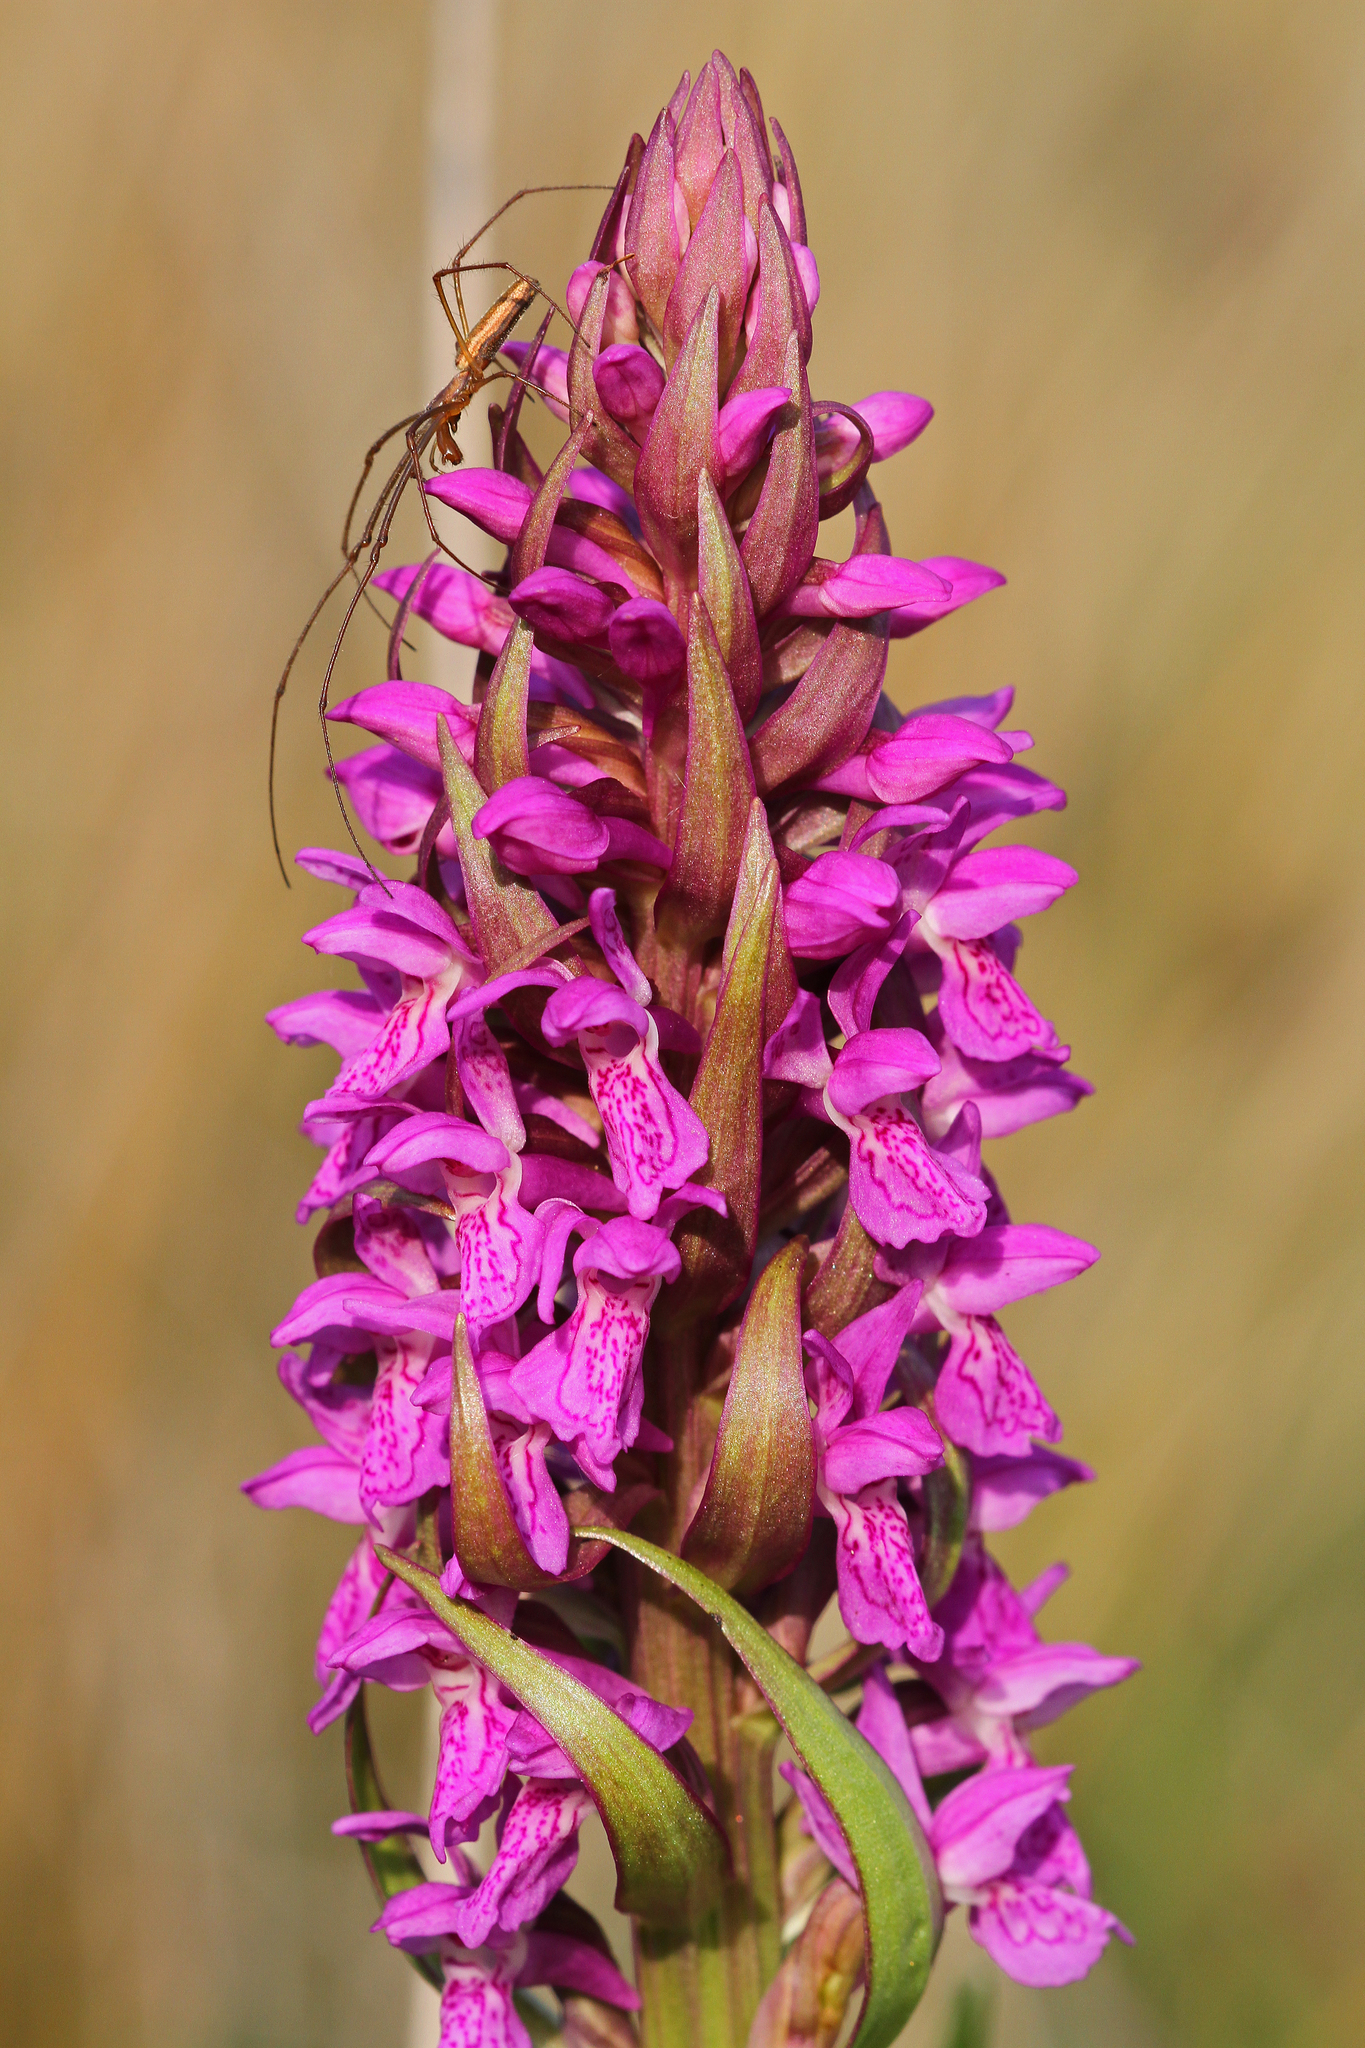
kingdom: Plantae
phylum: Tracheophyta
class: Liliopsida
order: Asparagales
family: Orchidaceae
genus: Dactylorhiza
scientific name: Dactylorhiza incarnata
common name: Early marsh-orchid
